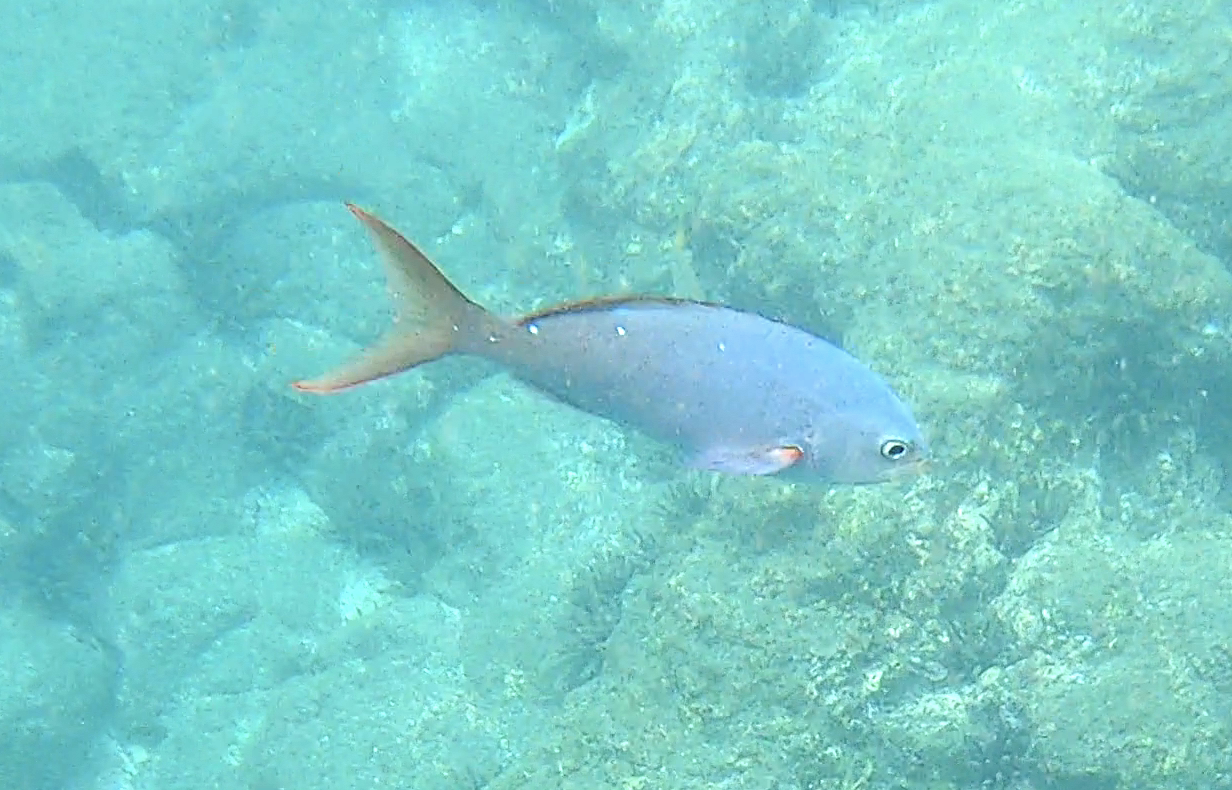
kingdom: Animalia
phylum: Chordata
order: Perciformes
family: Serranidae
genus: Paranthias
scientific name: Paranthias colonus
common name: Pacific creole-fish
